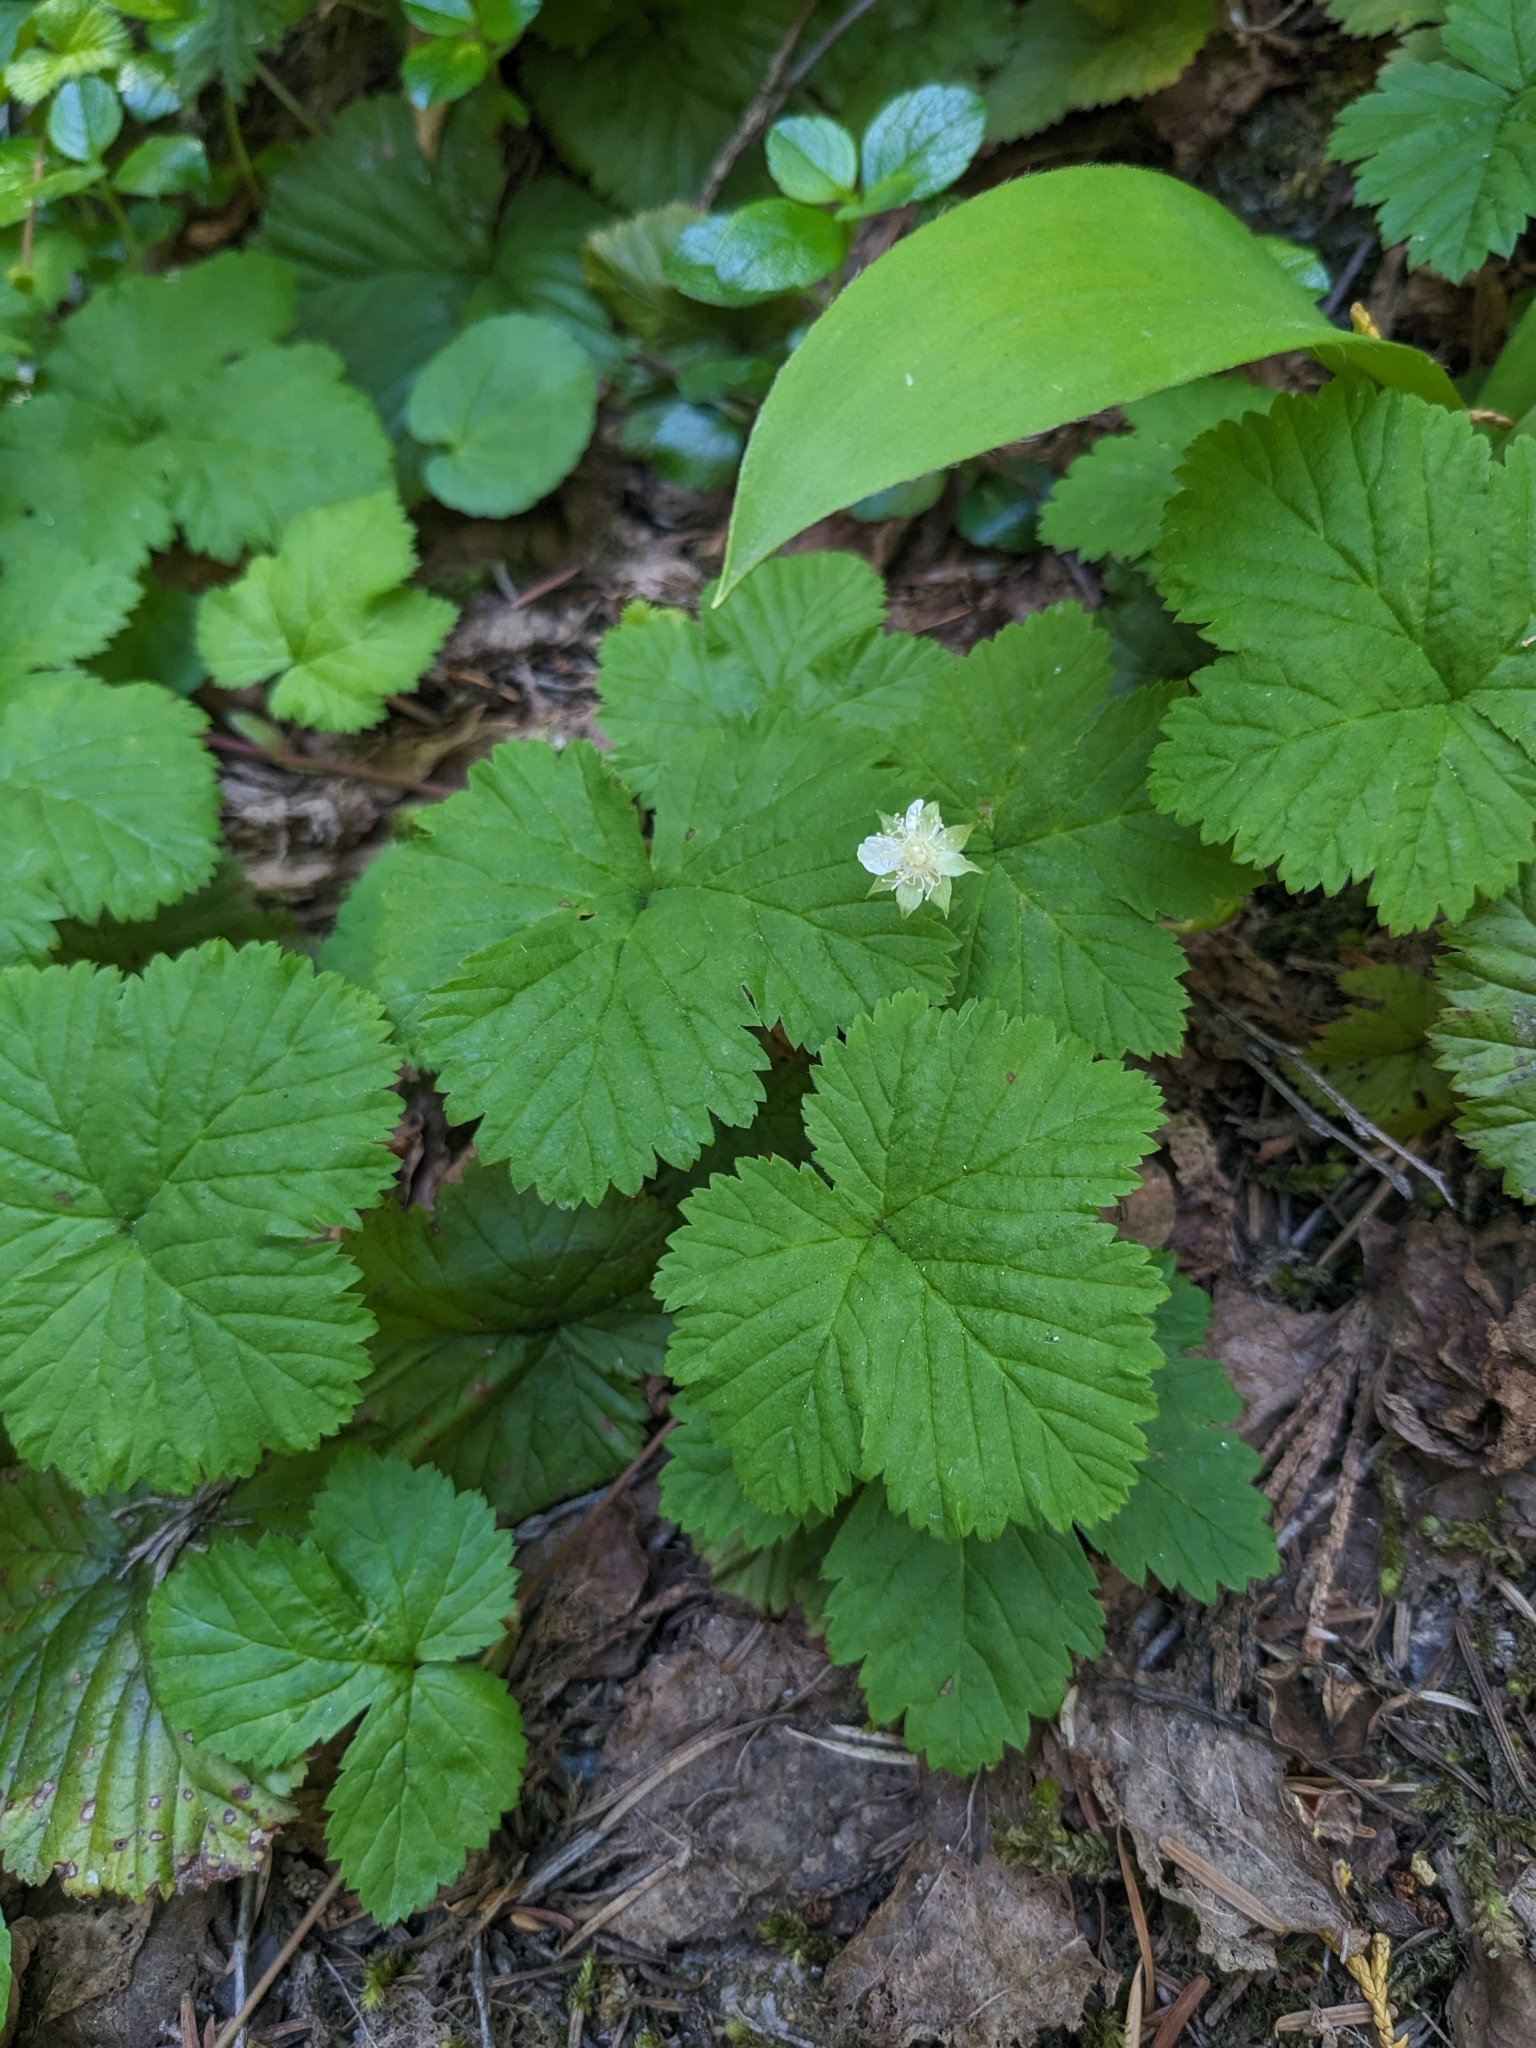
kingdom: Plantae
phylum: Tracheophyta
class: Magnoliopsida
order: Rosales
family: Rosaceae
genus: Rubus
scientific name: Rubus lasiococcus
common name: Dwarf bramble
